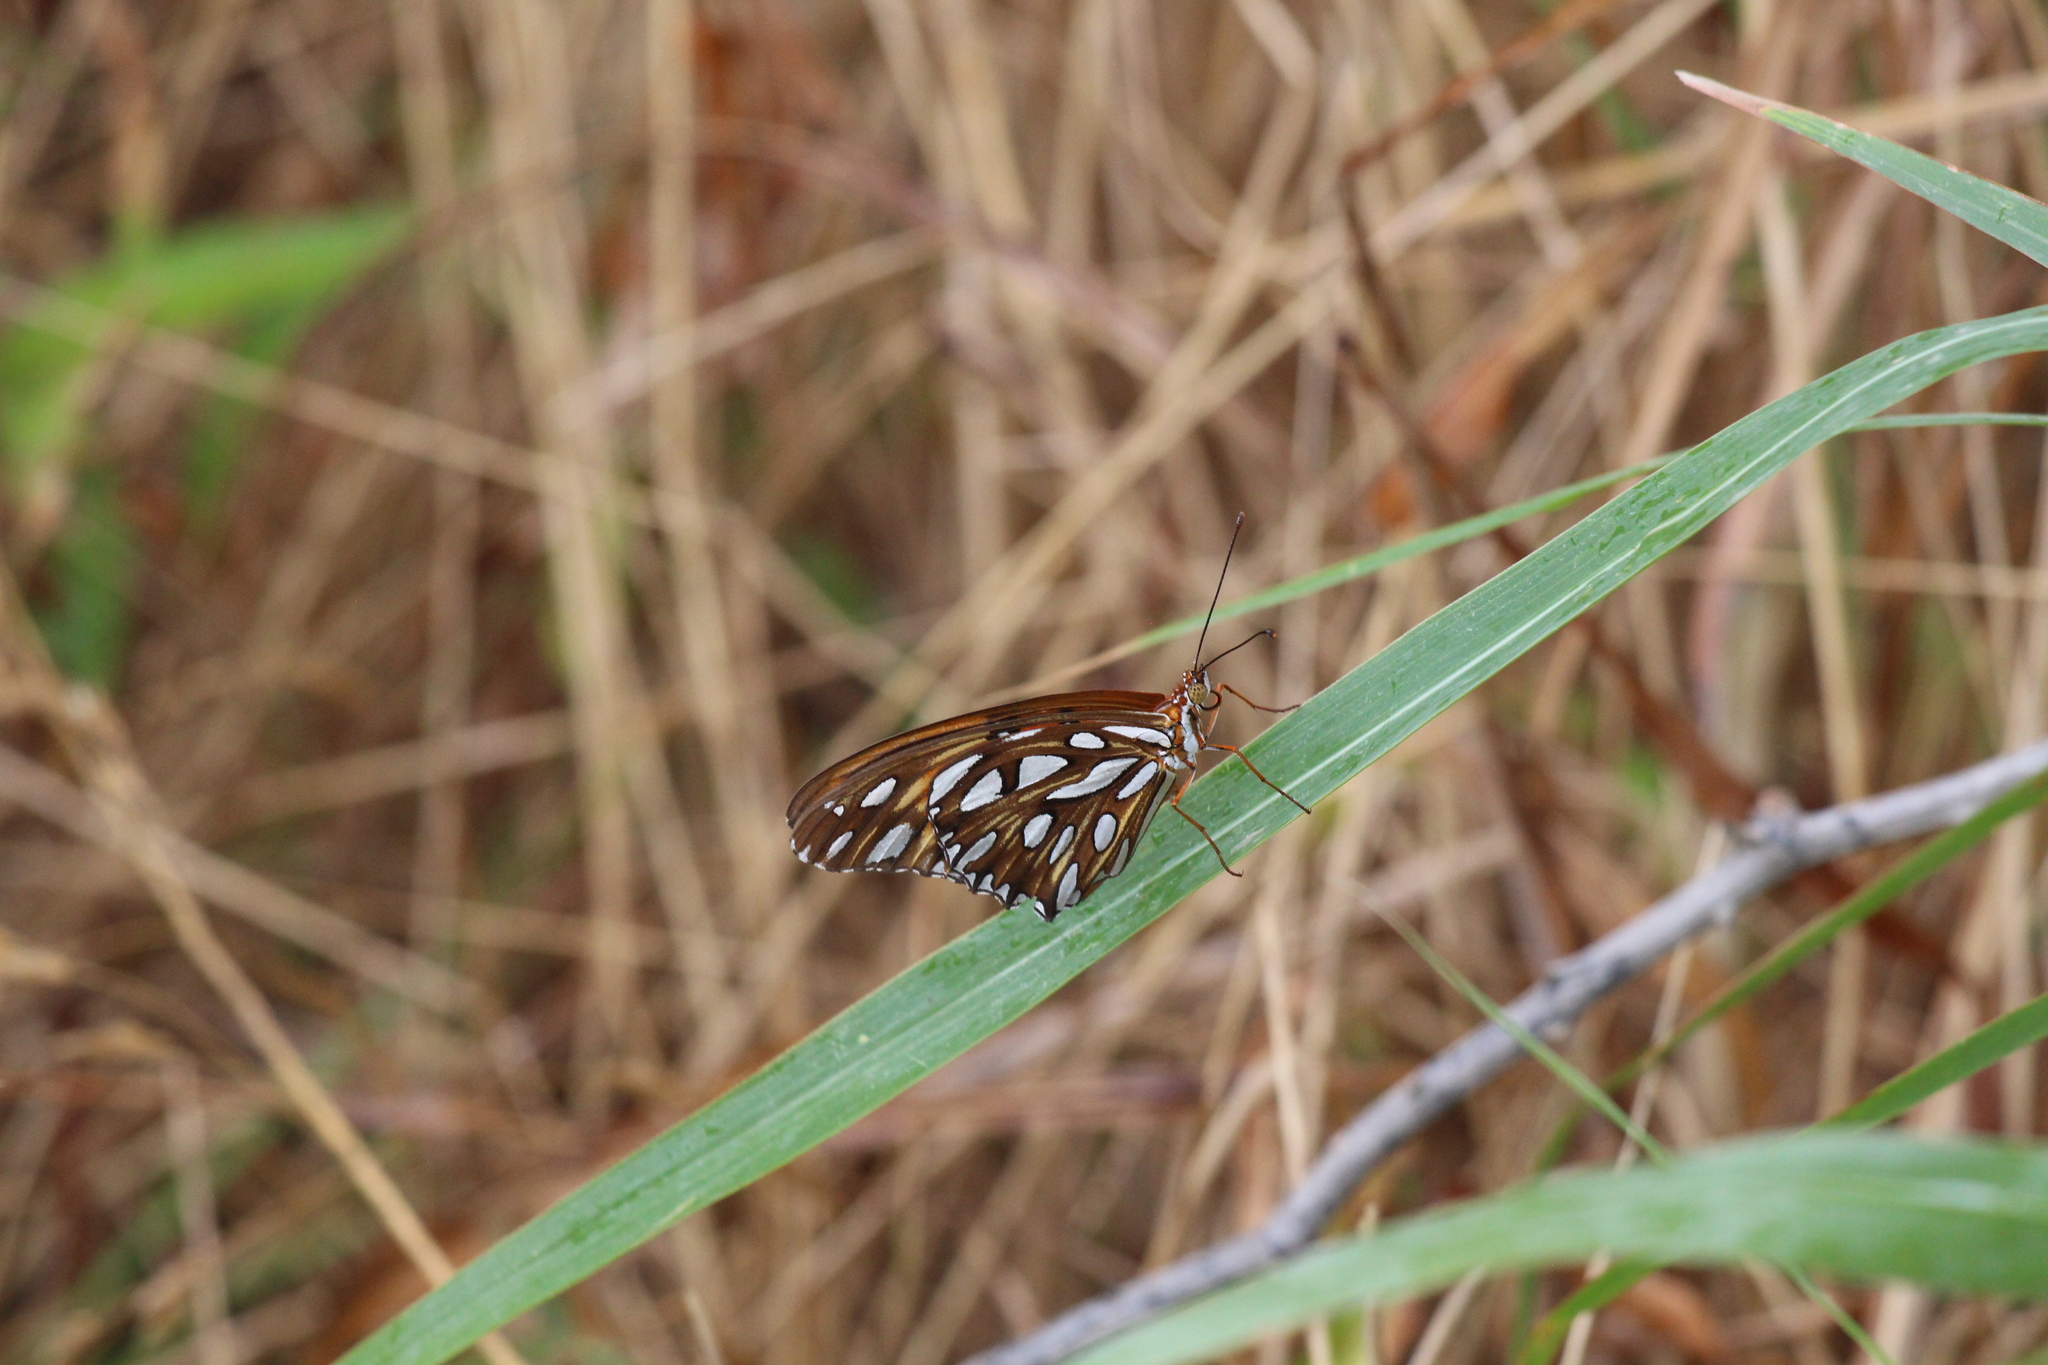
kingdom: Animalia
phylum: Arthropoda
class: Insecta
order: Lepidoptera
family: Nymphalidae
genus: Dione
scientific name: Dione vanillae
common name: Gulf fritillary
